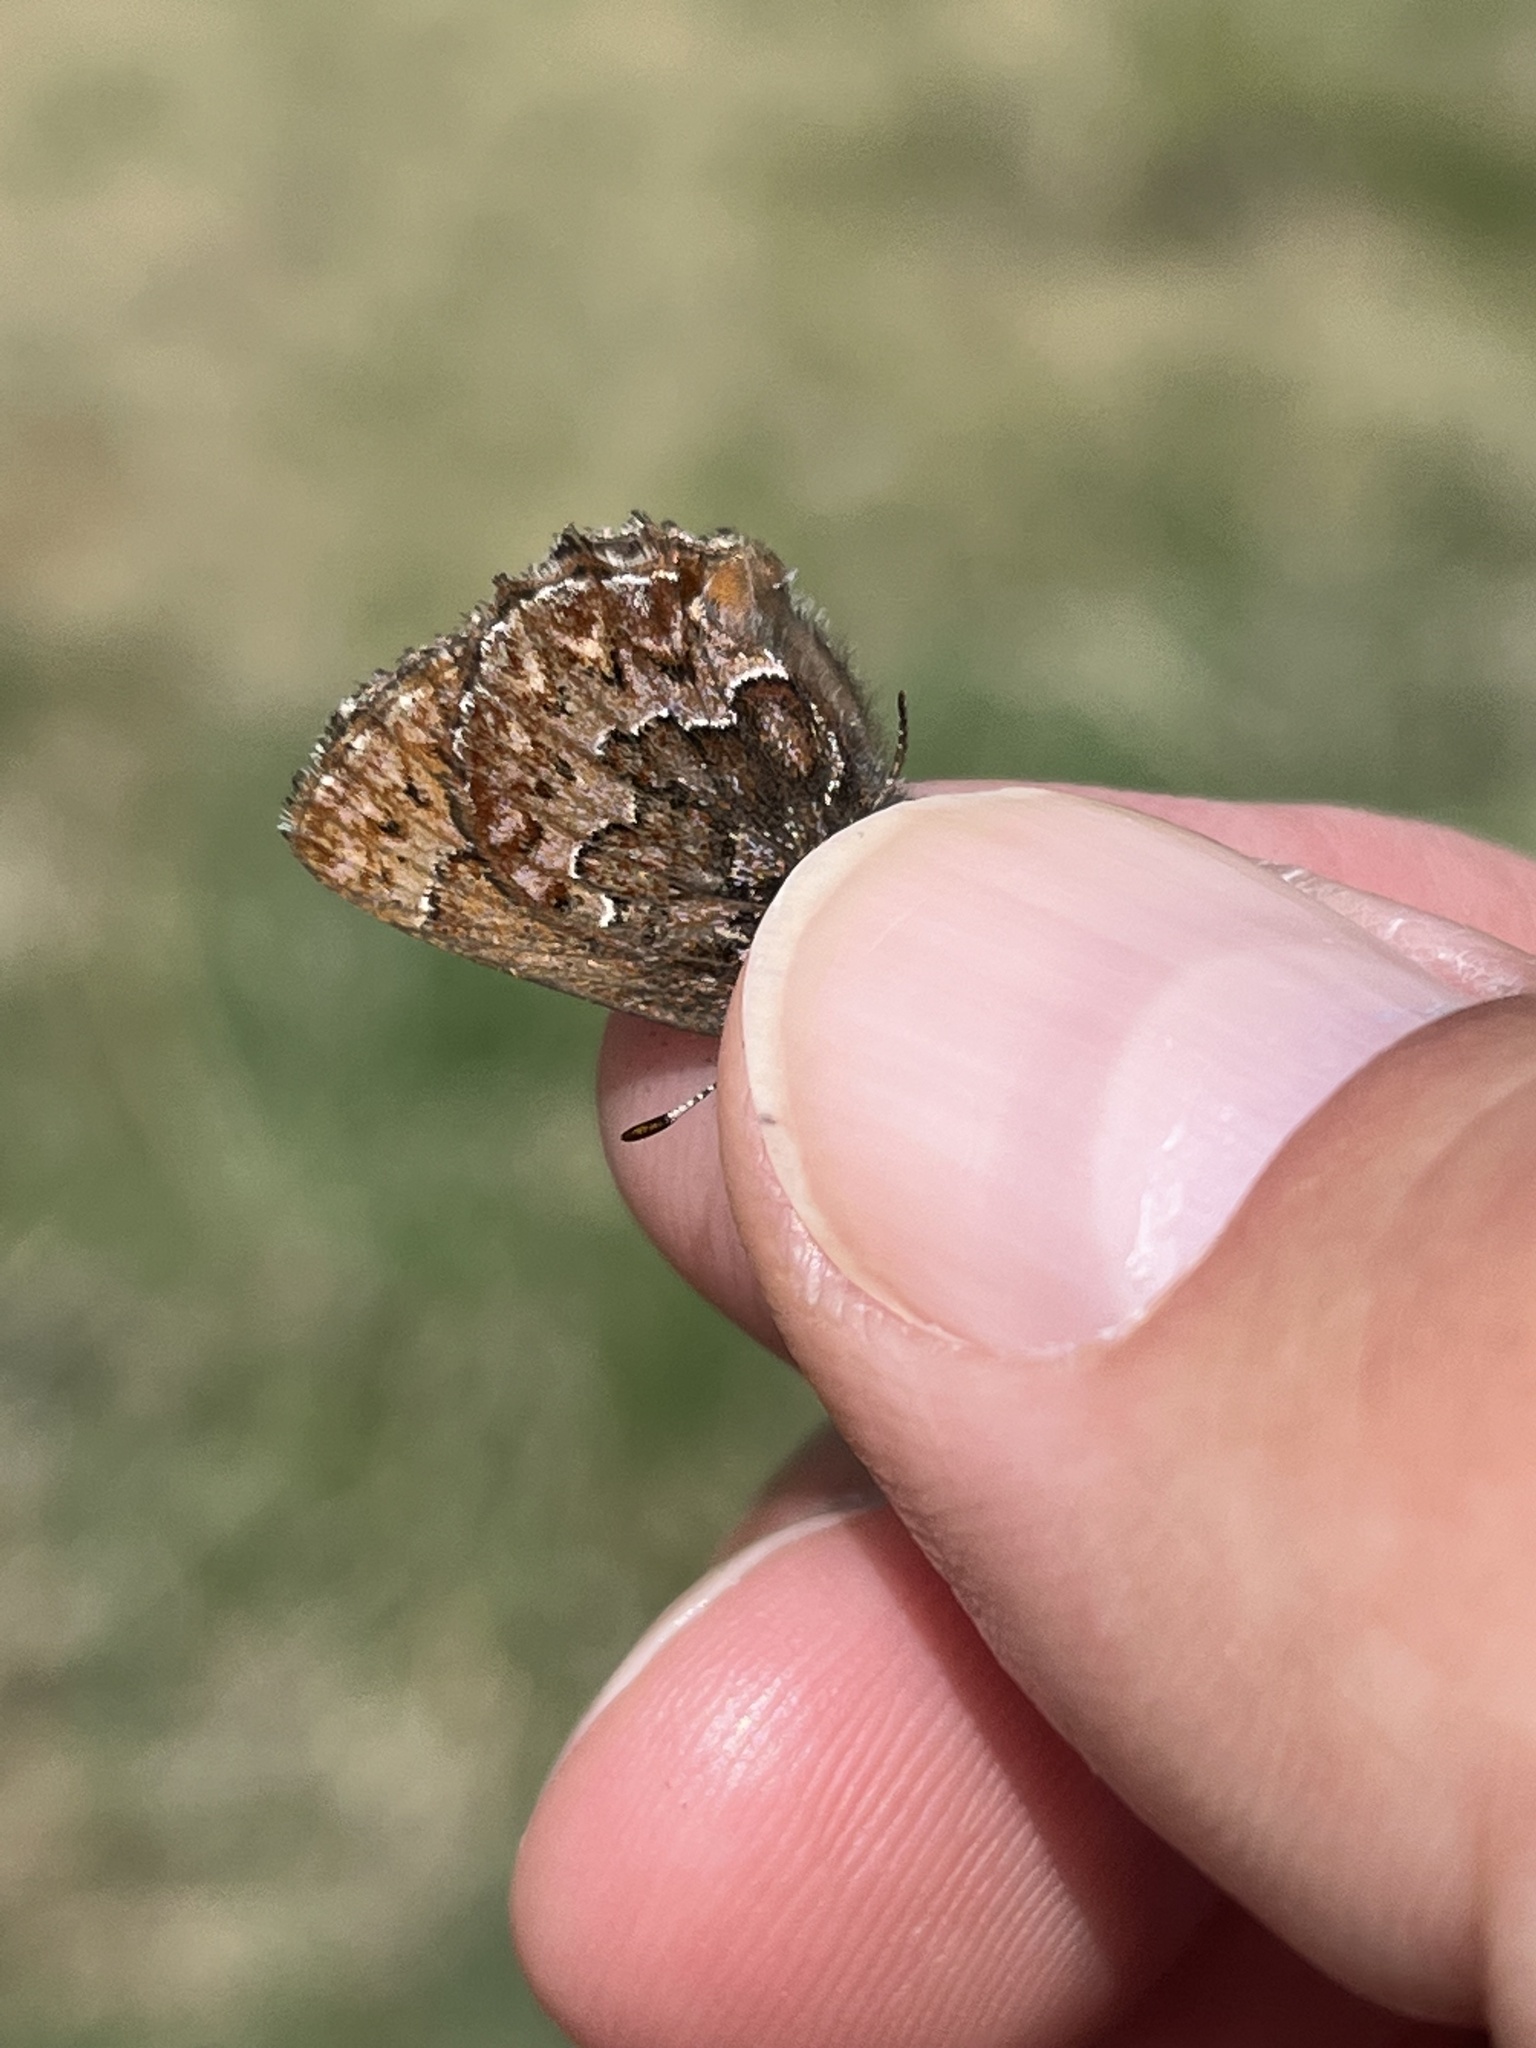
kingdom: Animalia
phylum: Arthropoda
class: Insecta
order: Lepidoptera
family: Lycaenidae
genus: Incisalia
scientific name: Incisalia eryphon
